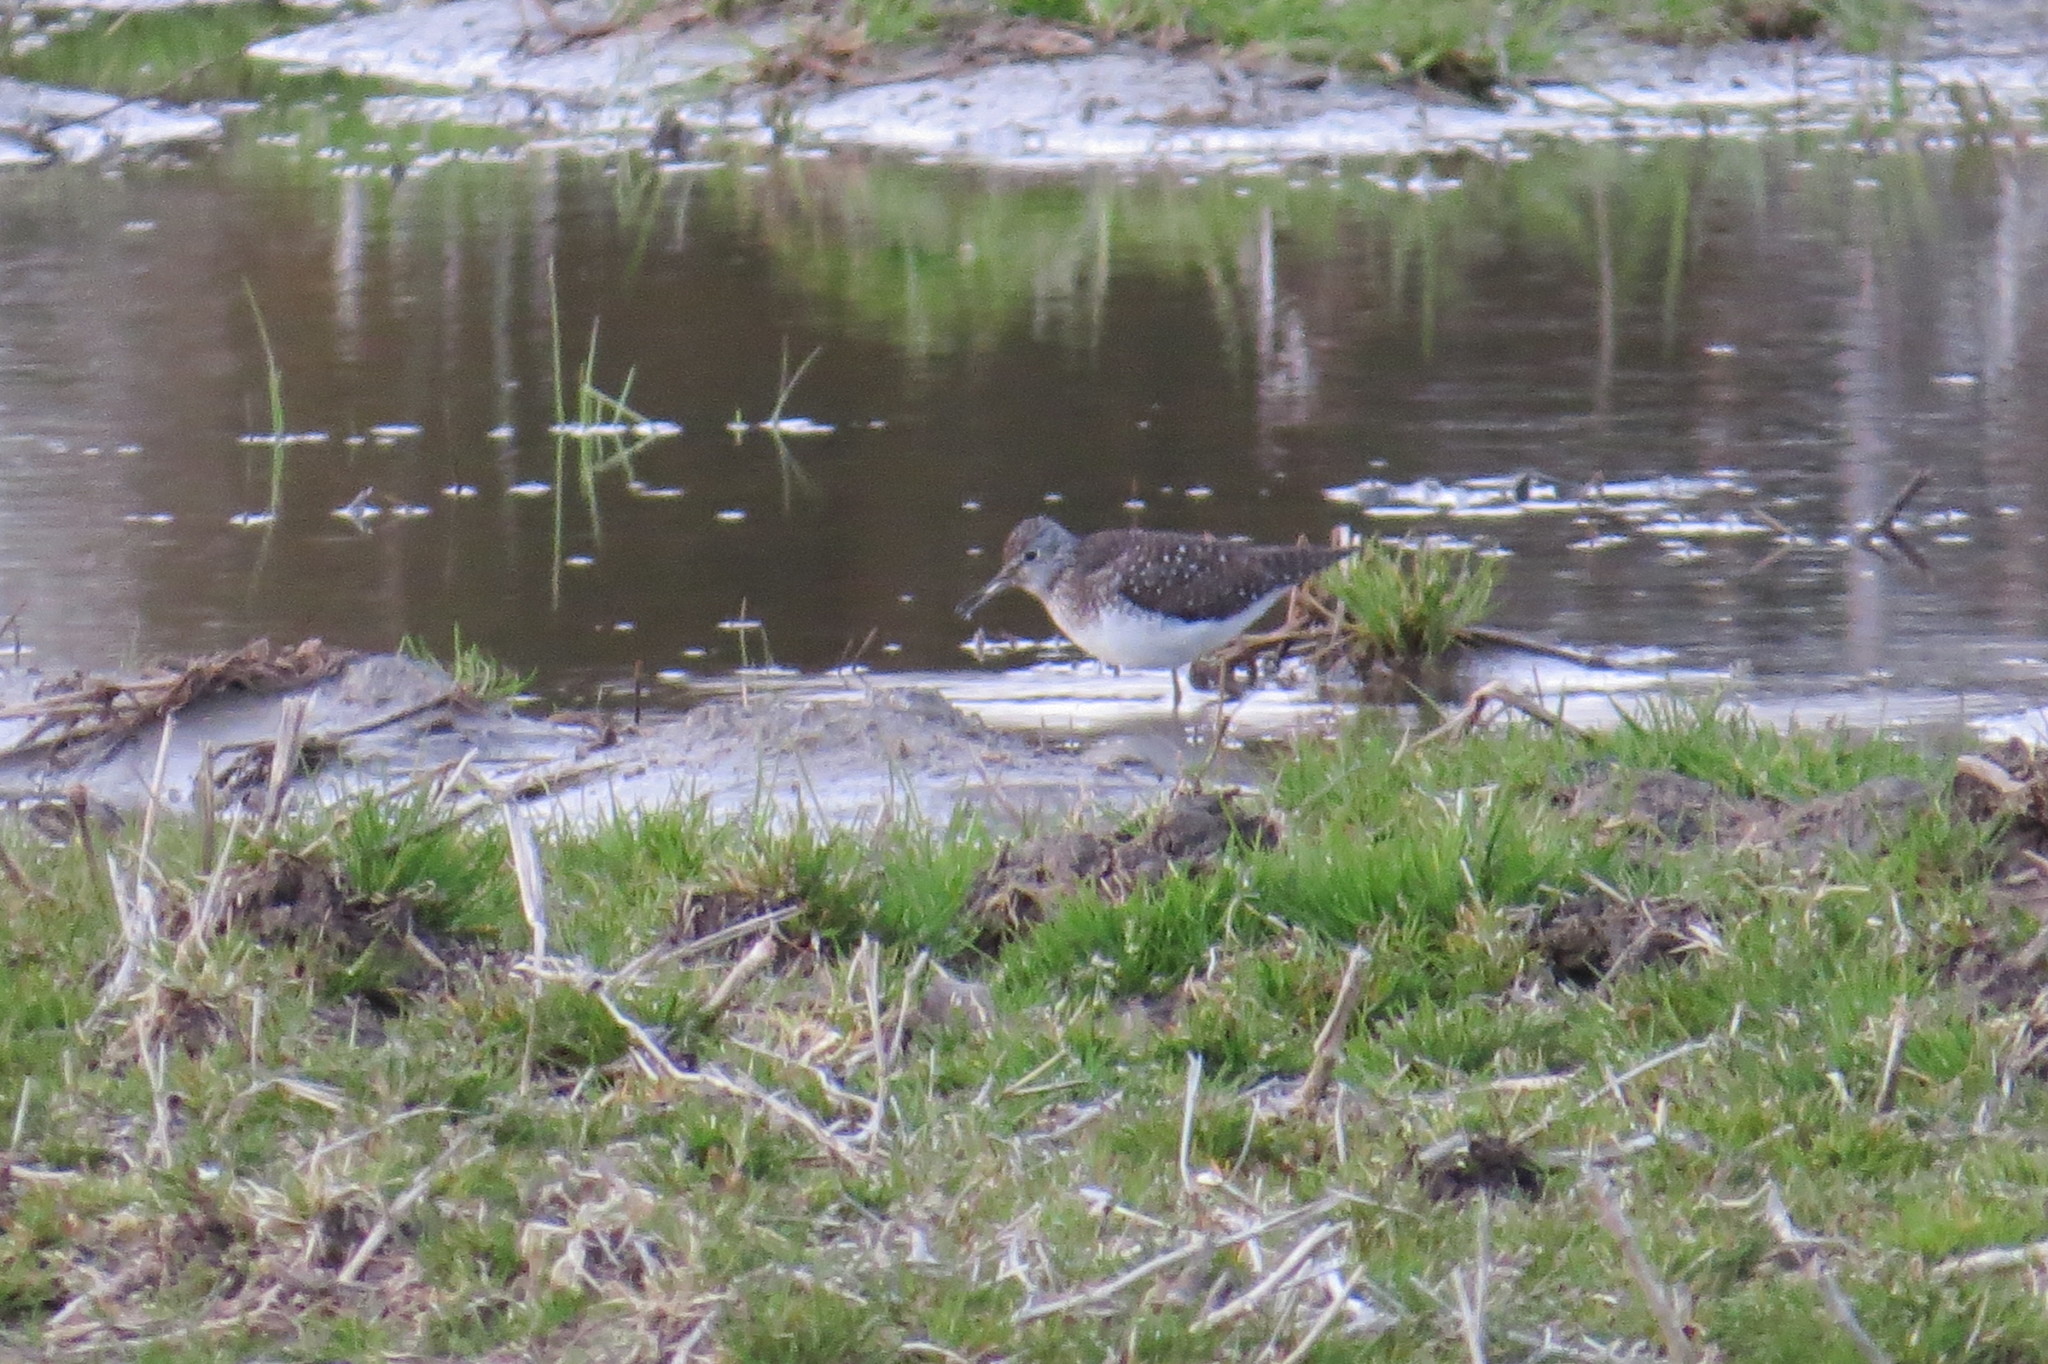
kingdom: Animalia
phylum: Chordata
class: Aves
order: Charadriiformes
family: Scolopacidae
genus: Tringa
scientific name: Tringa solitaria
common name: Solitary sandpiper
